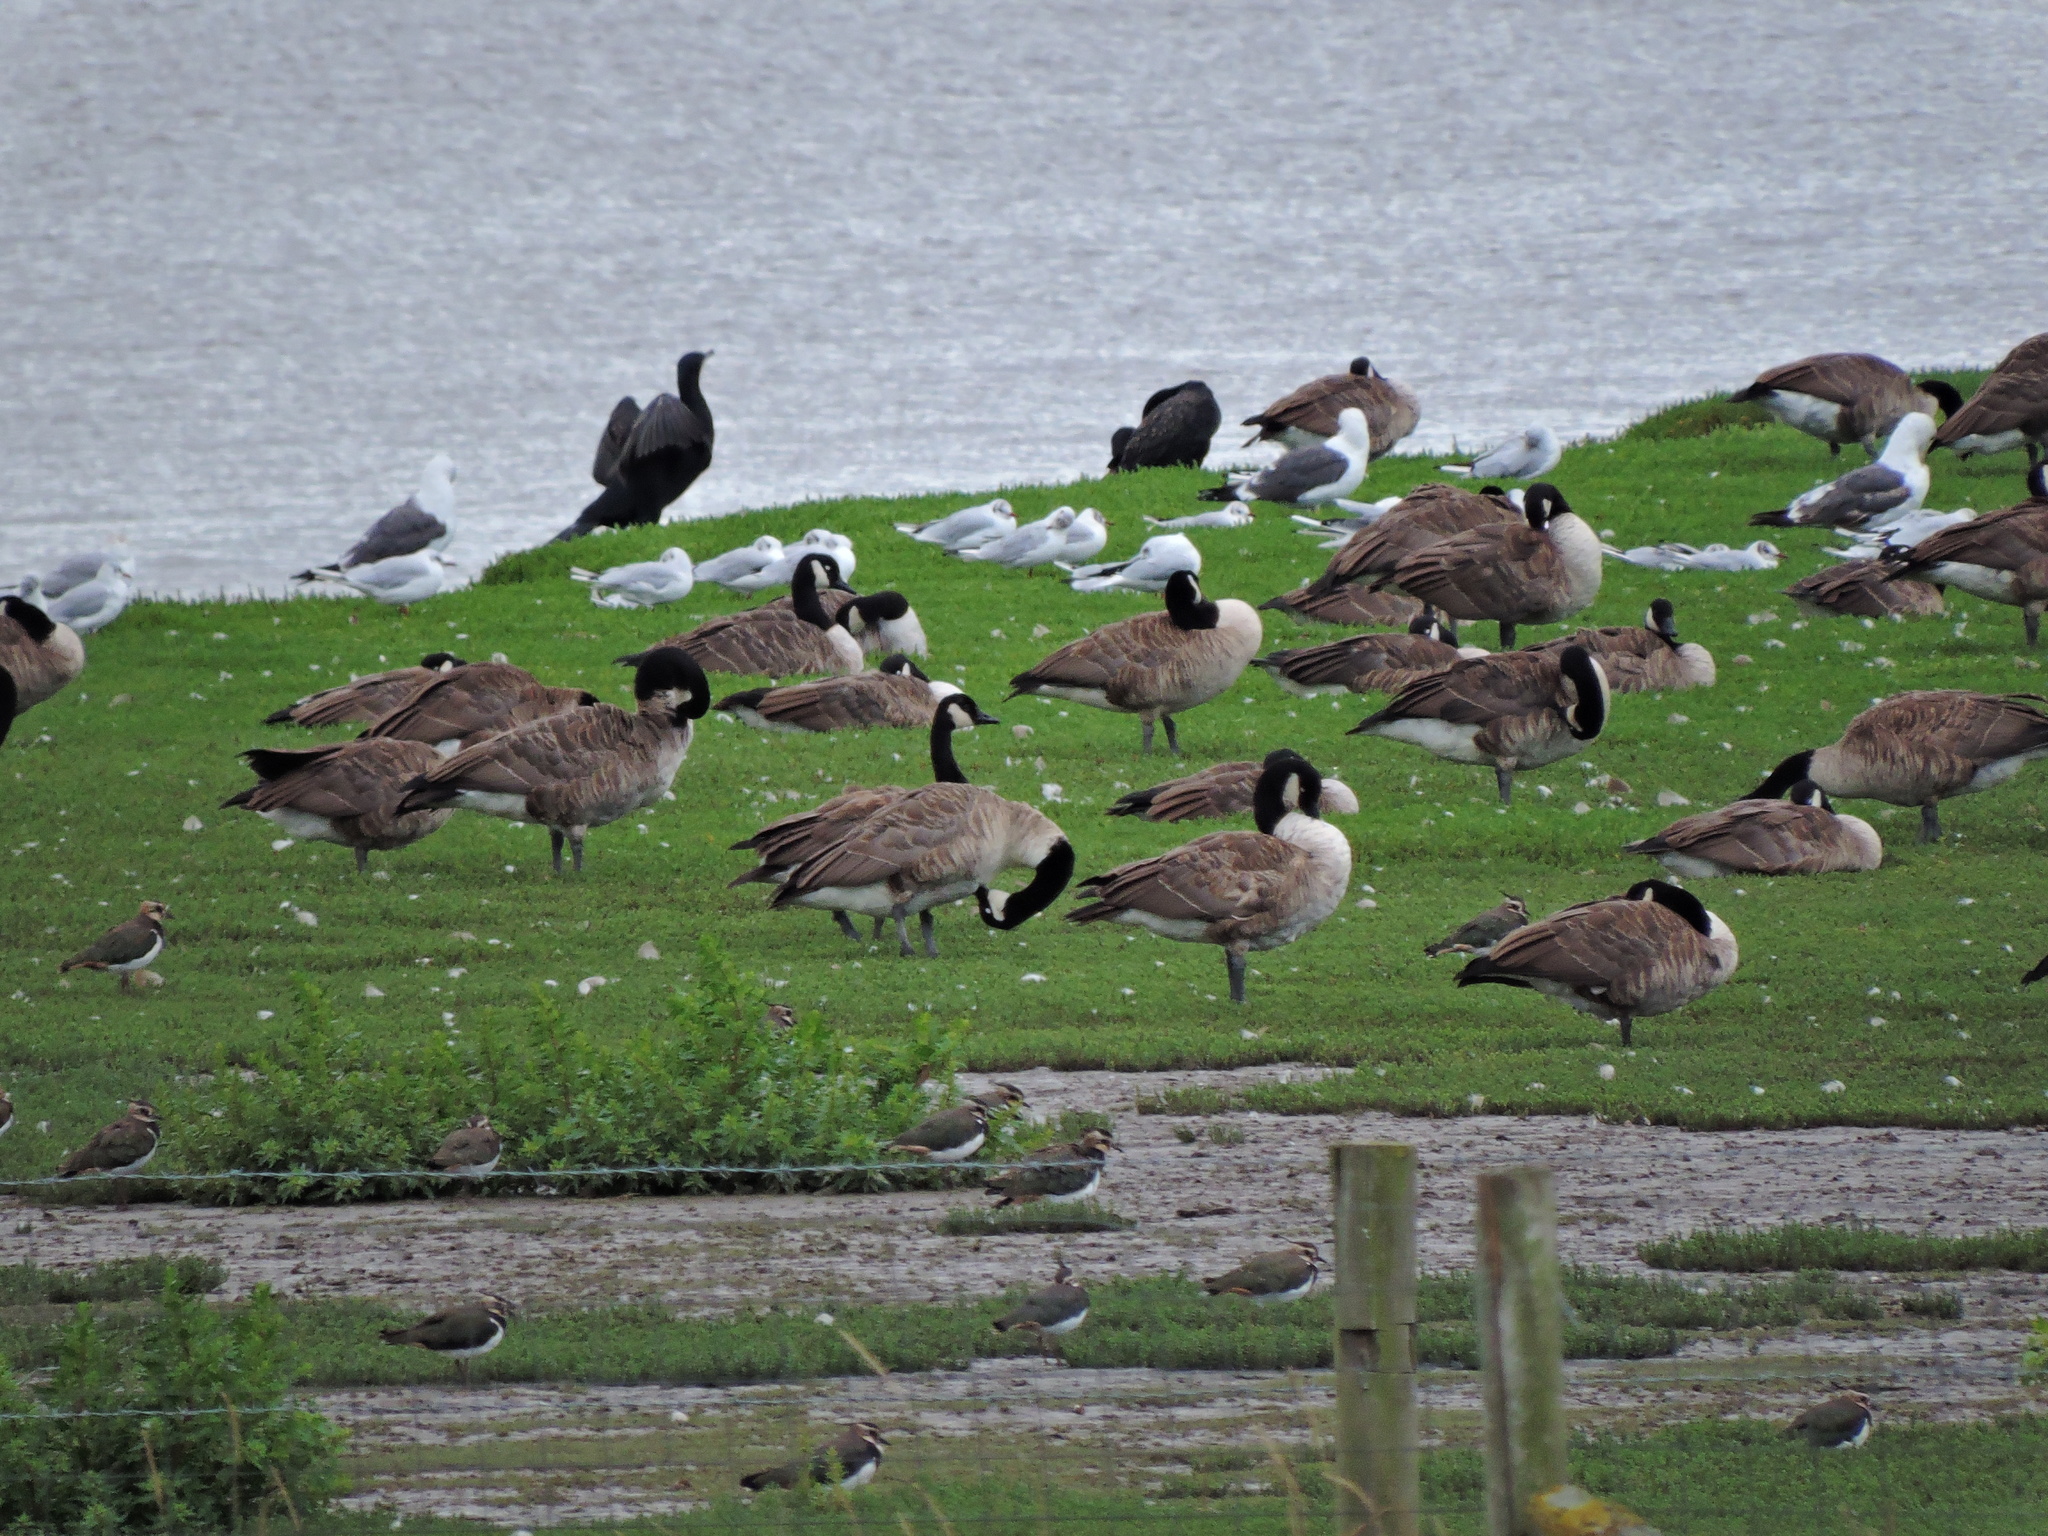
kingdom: Animalia
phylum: Chordata
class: Aves
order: Charadriiformes
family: Laridae
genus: Chroicocephalus
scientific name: Chroicocephalus ridibundus
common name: Black-headed gull
